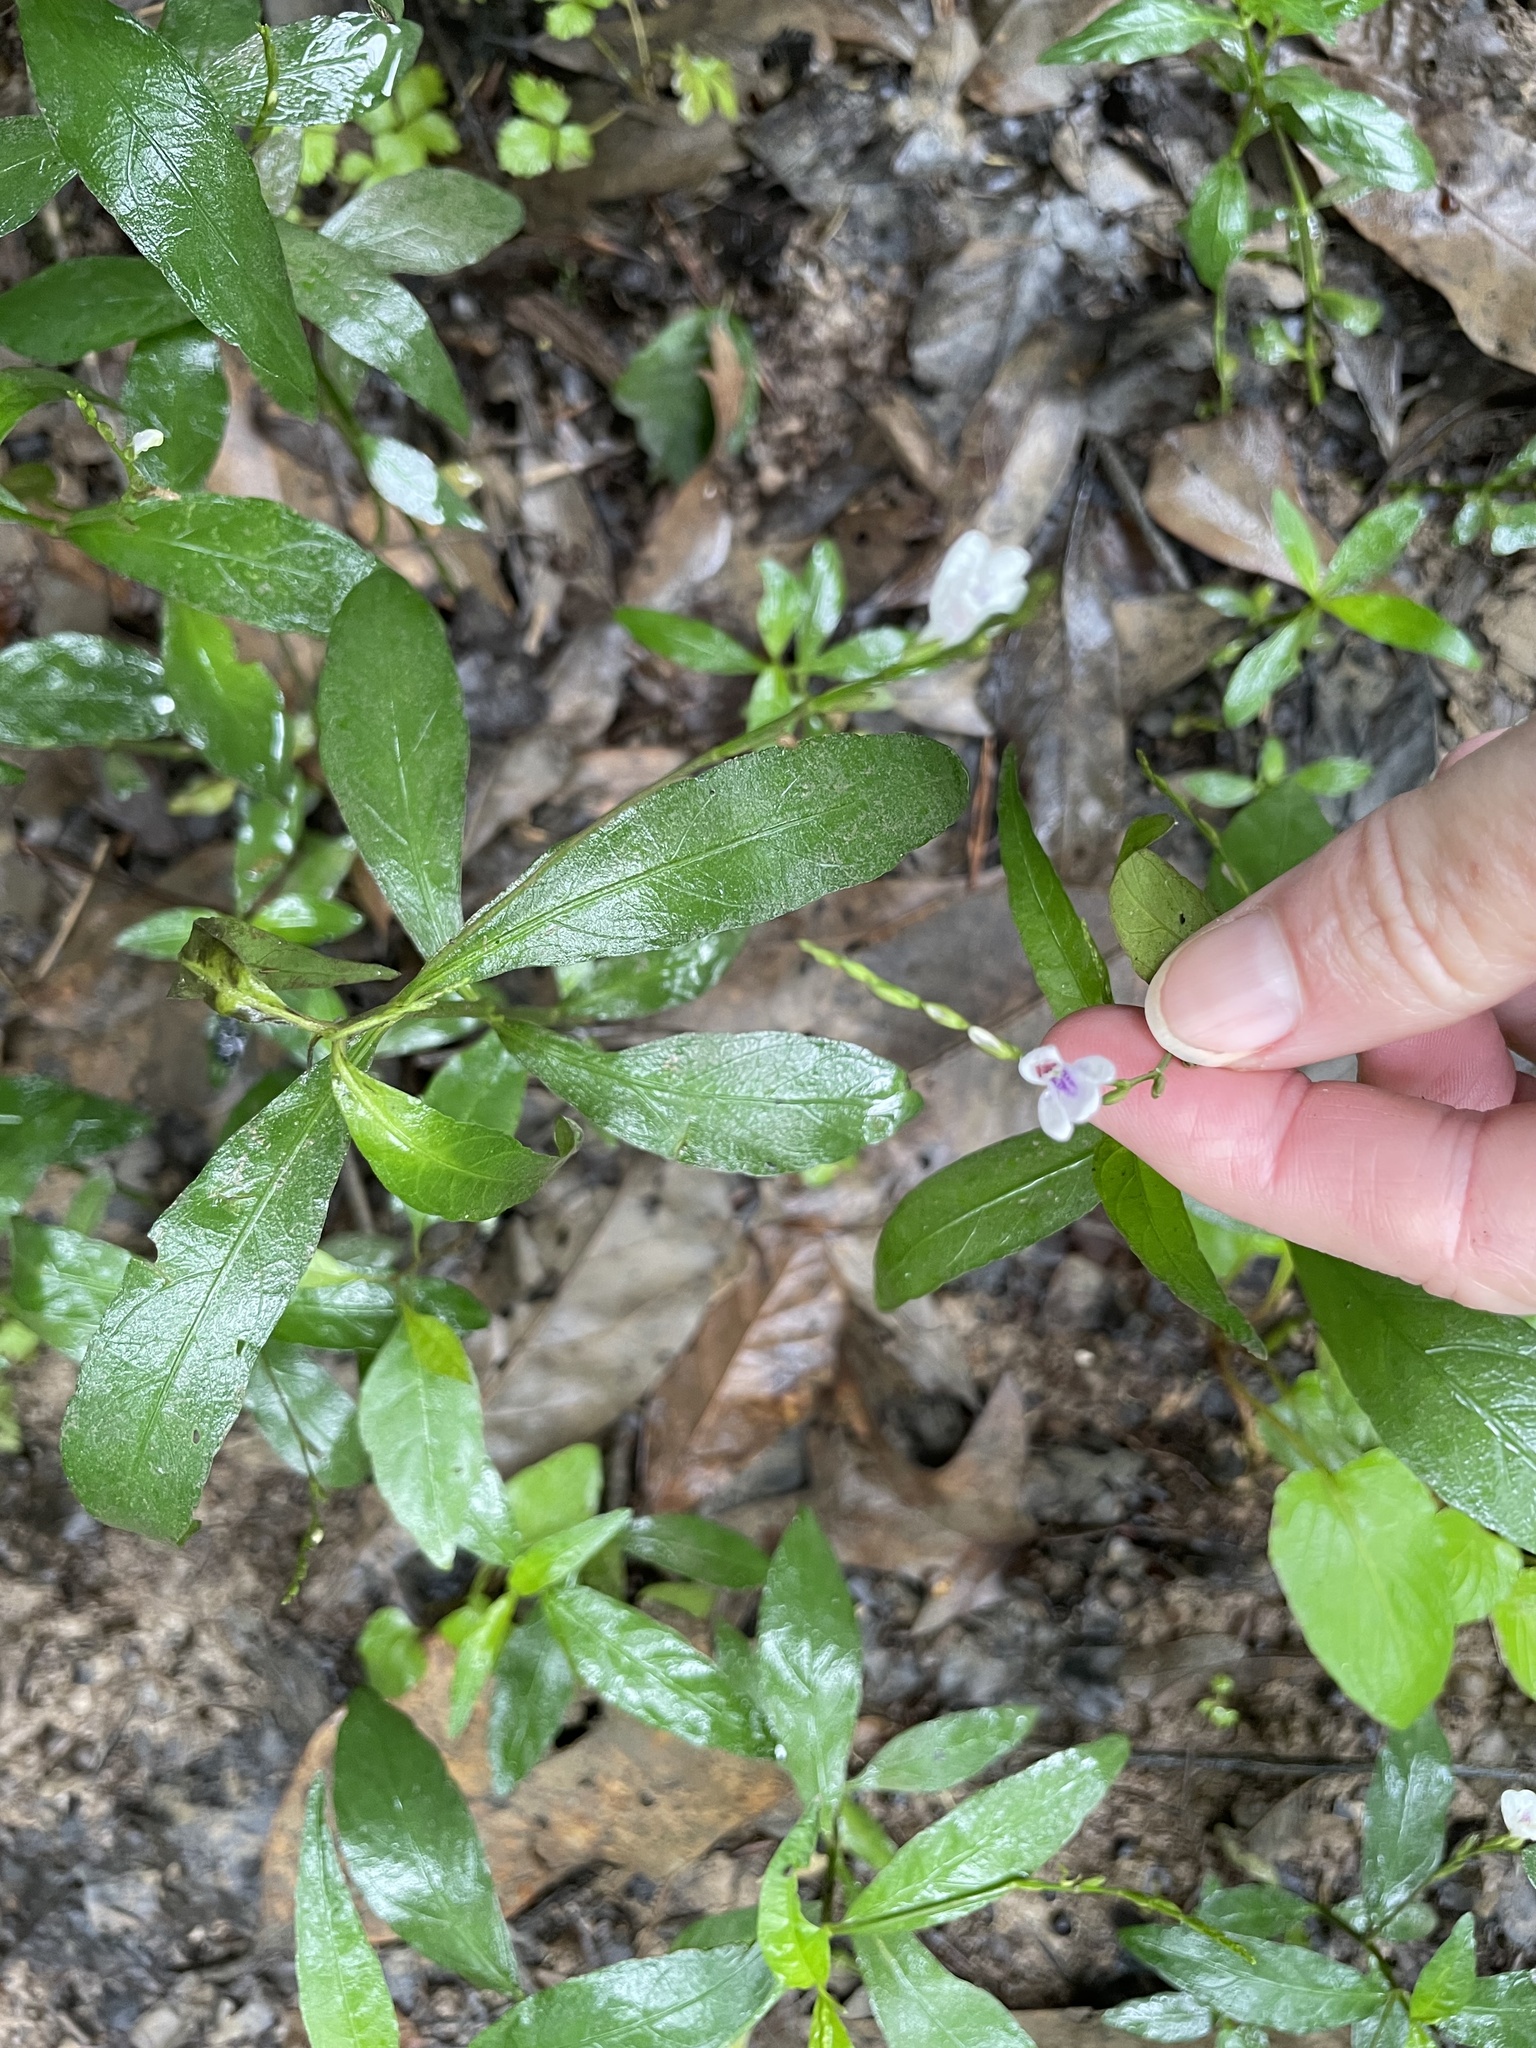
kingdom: Plantae
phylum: Tracheophyta
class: Magnoliopsida
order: Lamiales
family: Acanthaceae
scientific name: Acanthaceae
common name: Acanthaceae
